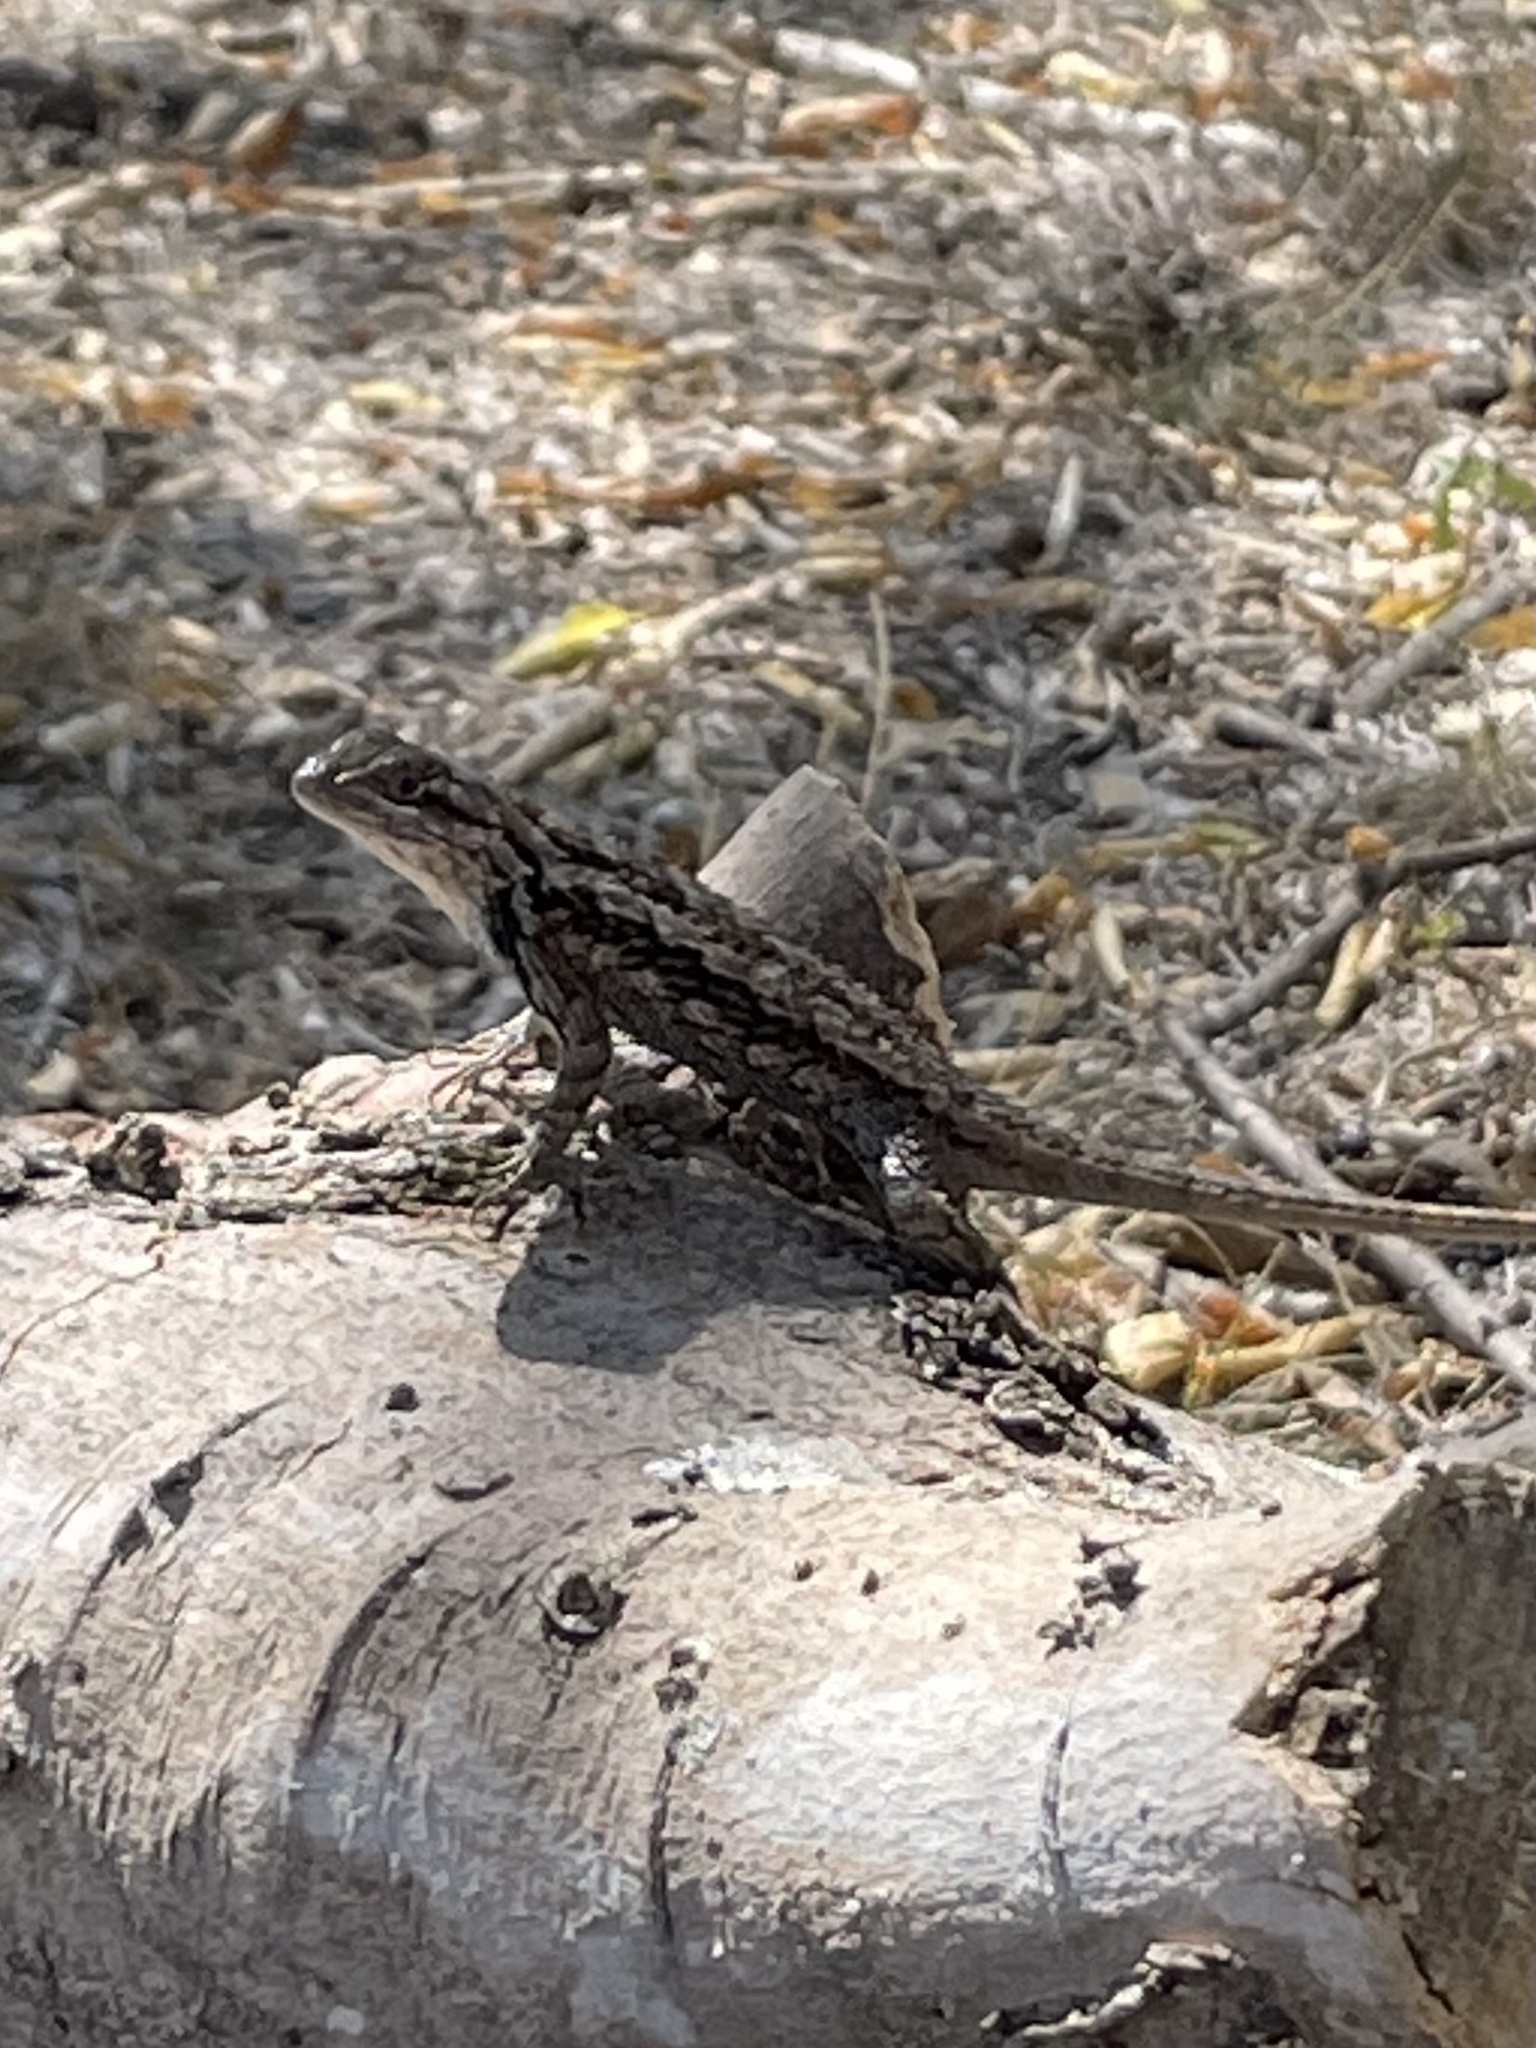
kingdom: Animalia
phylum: Chordata
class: Squamata
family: Phrynosomatidae
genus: Sceloporus
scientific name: Sceloporus olivaceus
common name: Texas spiny lizard
